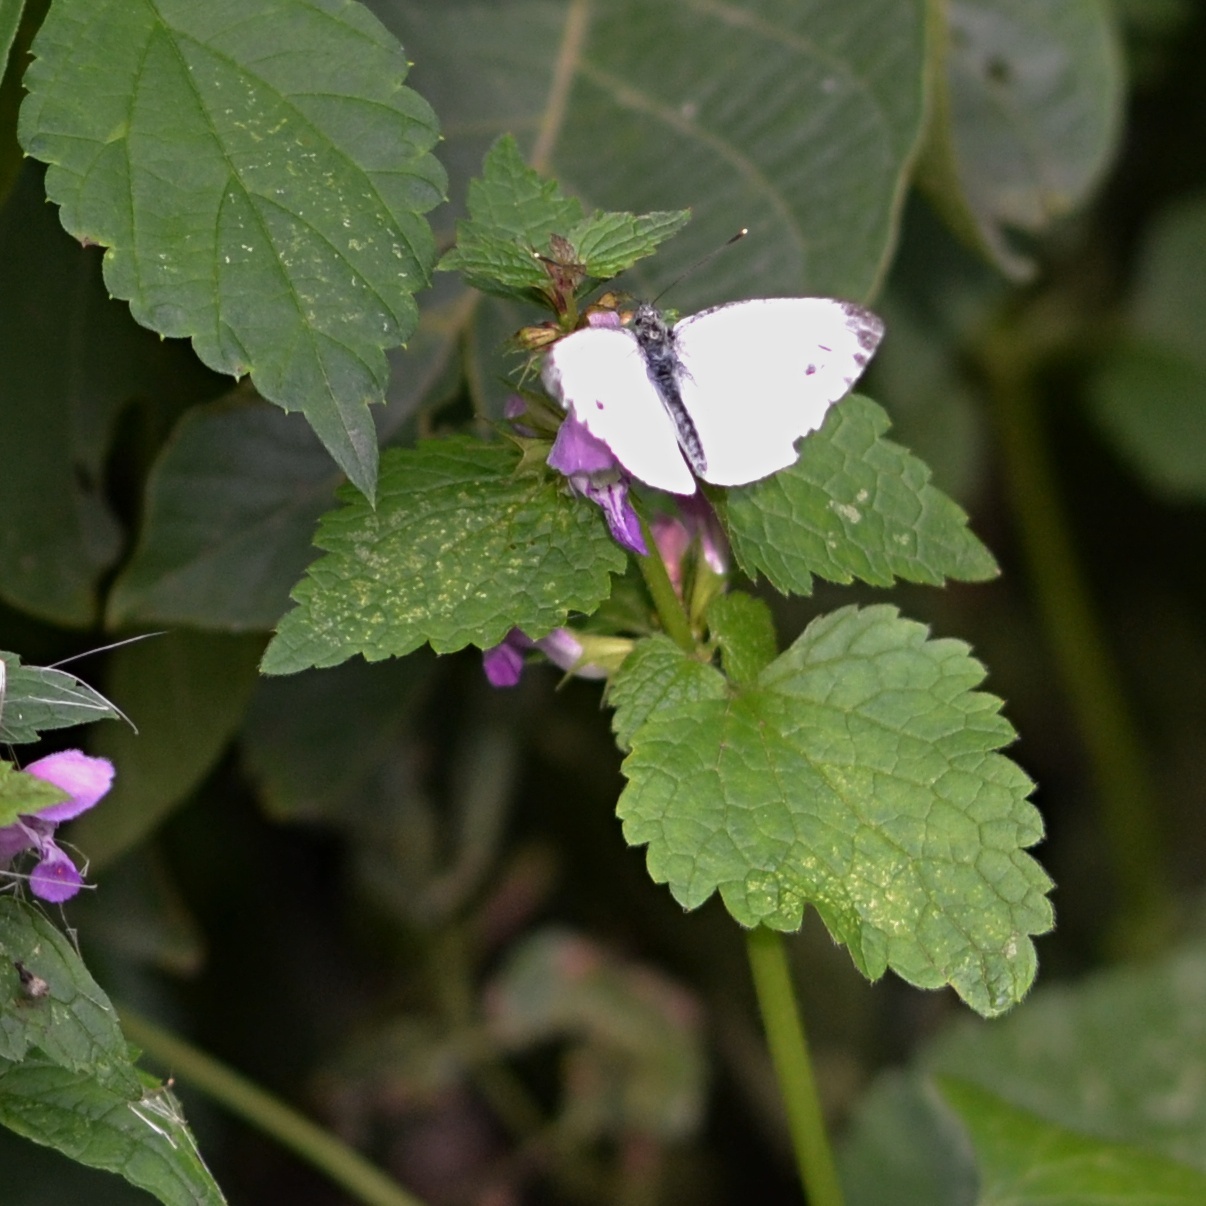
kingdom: Animalia
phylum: Arthropoda
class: Insecta
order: Lepidoptera
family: Pieridae
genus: Pieris
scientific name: Pieris napi
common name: Green-veined white
